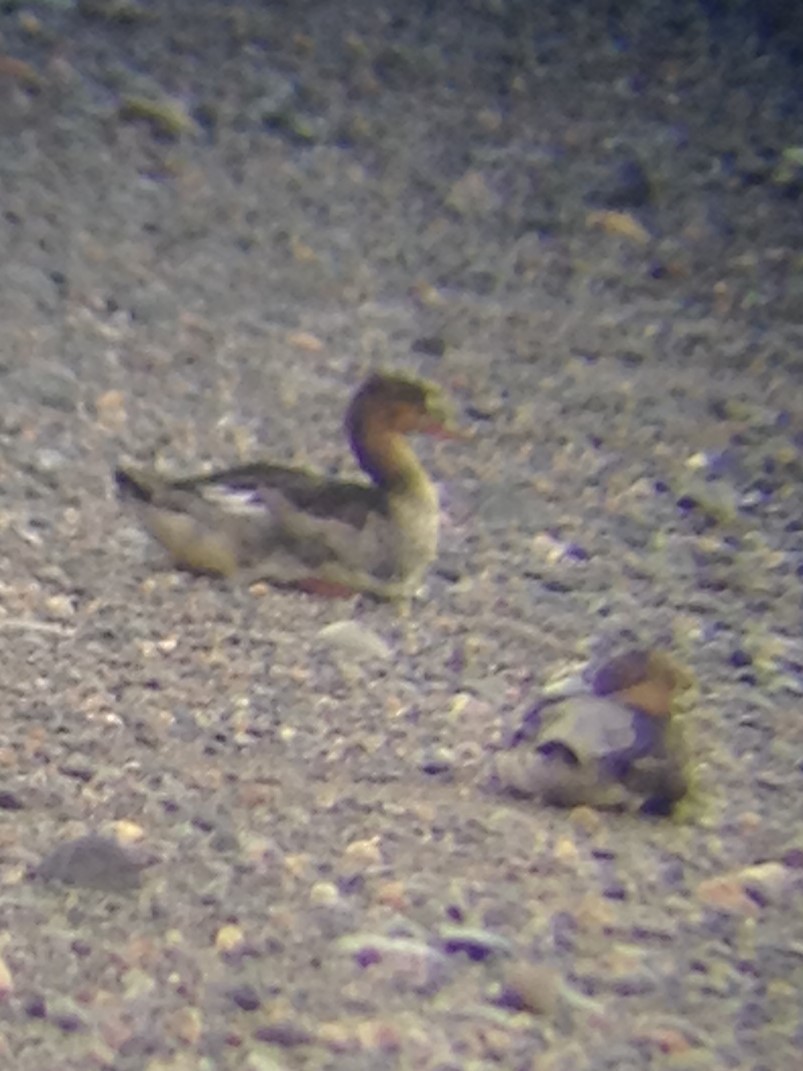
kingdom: Animalia
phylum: Chordata
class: Aves
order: Anseriformes
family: Anatidae
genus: Mergus
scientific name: Mergus serrator
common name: Red-breasted merganser
